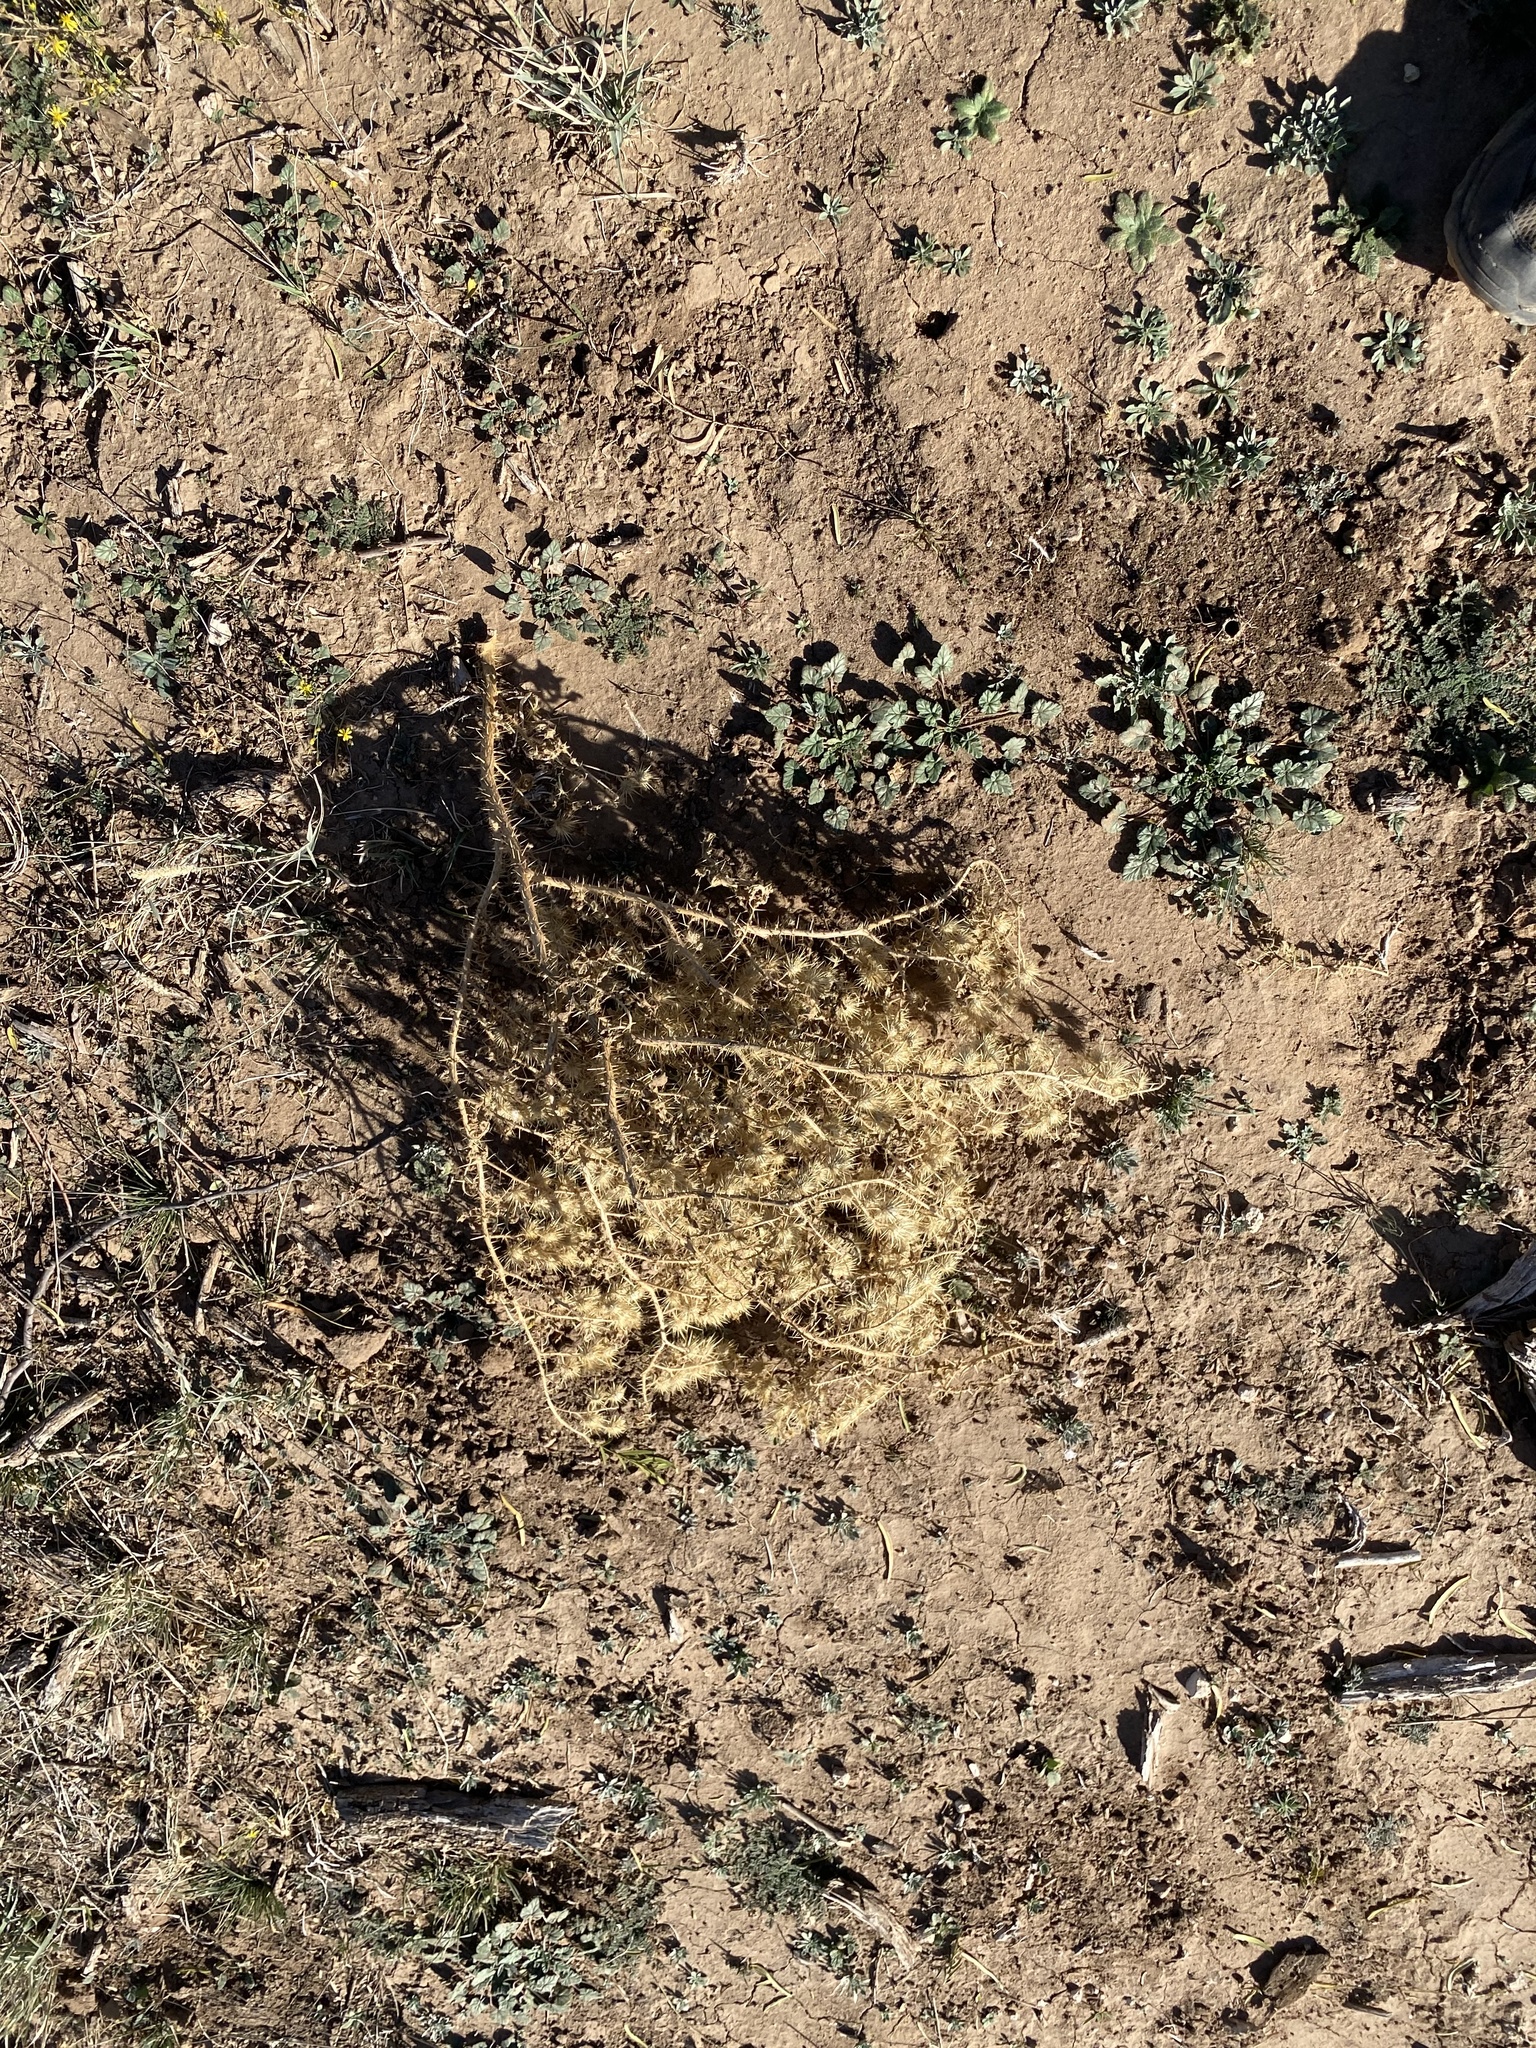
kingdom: Plantae
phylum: Tracheophyta
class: Magnoliopsida
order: Solanales
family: Solanaceae
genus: Solanum
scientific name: Solanum angustifolium
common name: Buffalobur nightshade
